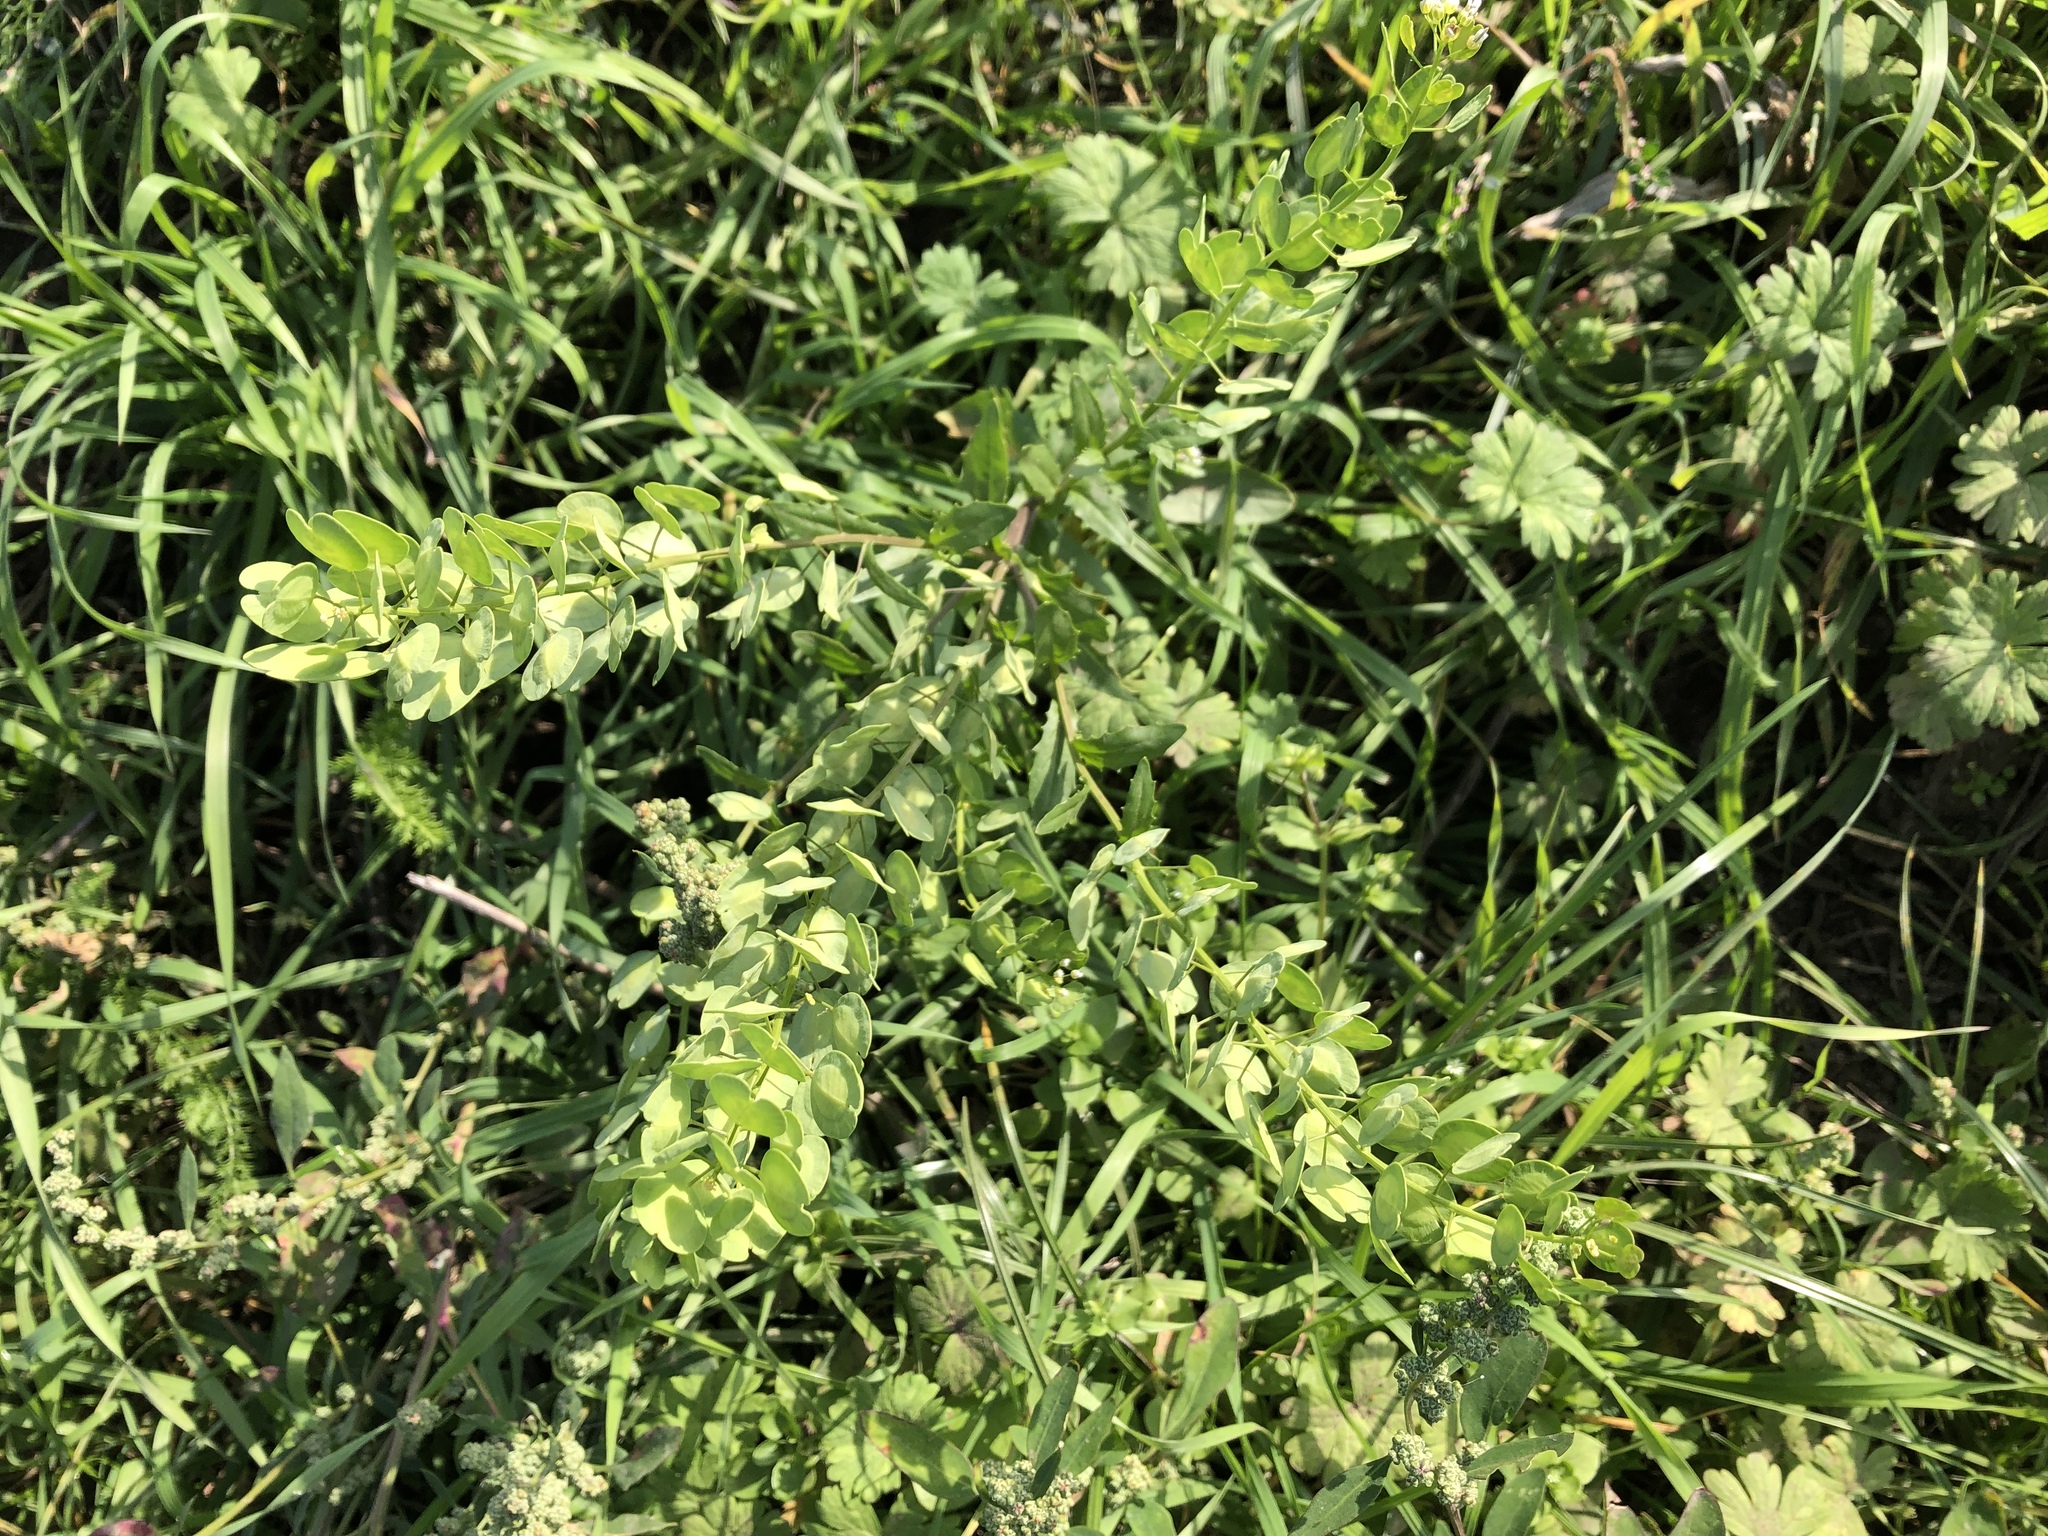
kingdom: Plantae
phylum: Tracheophyta
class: Magnoliopsida
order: Brassicales
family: Brassicaceae
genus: Thlaspi
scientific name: Thlaspi arvense
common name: Field pennycress
